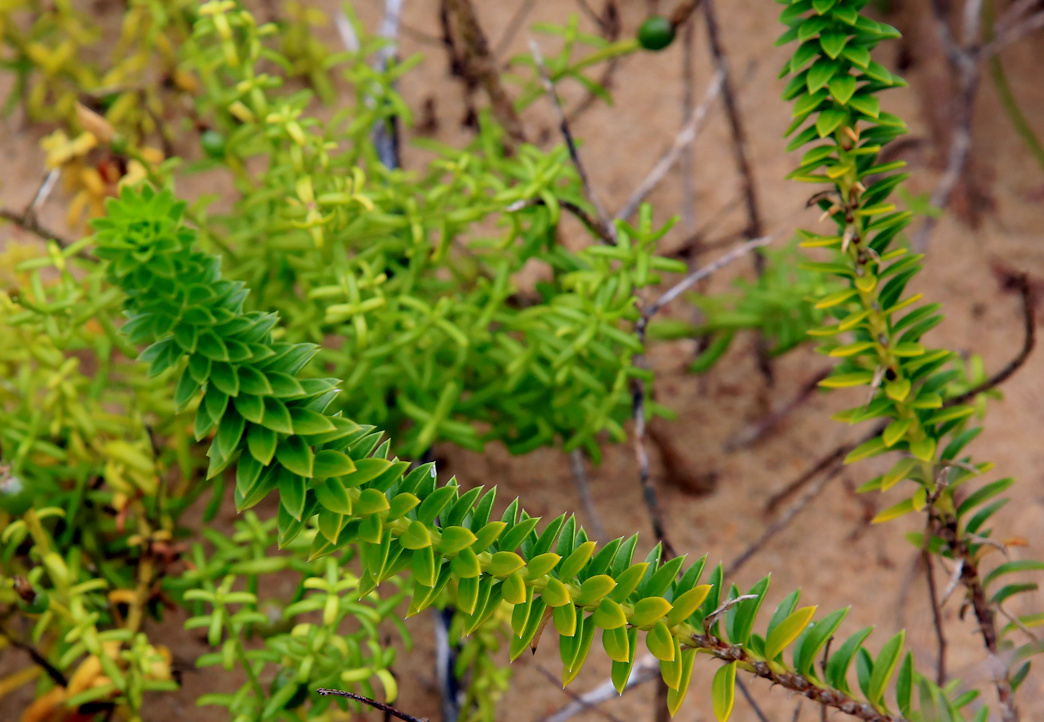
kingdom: Plantae
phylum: Tracheophyta
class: Magnoliopsida
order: Asterales
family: Asteraceae
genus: Felicia
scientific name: Felicia echinata
